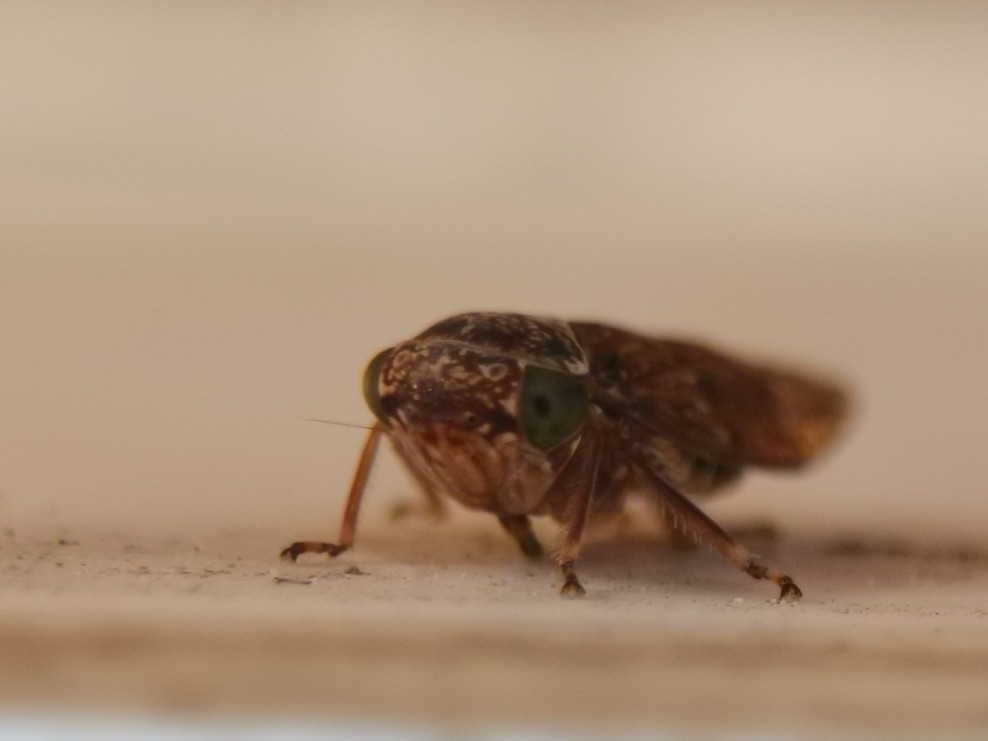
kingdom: Animalia
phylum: Arthropoda
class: Insecta
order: Hemiptera
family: Cicadellidae
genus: Acericerus
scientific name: Acericerus ribauti
